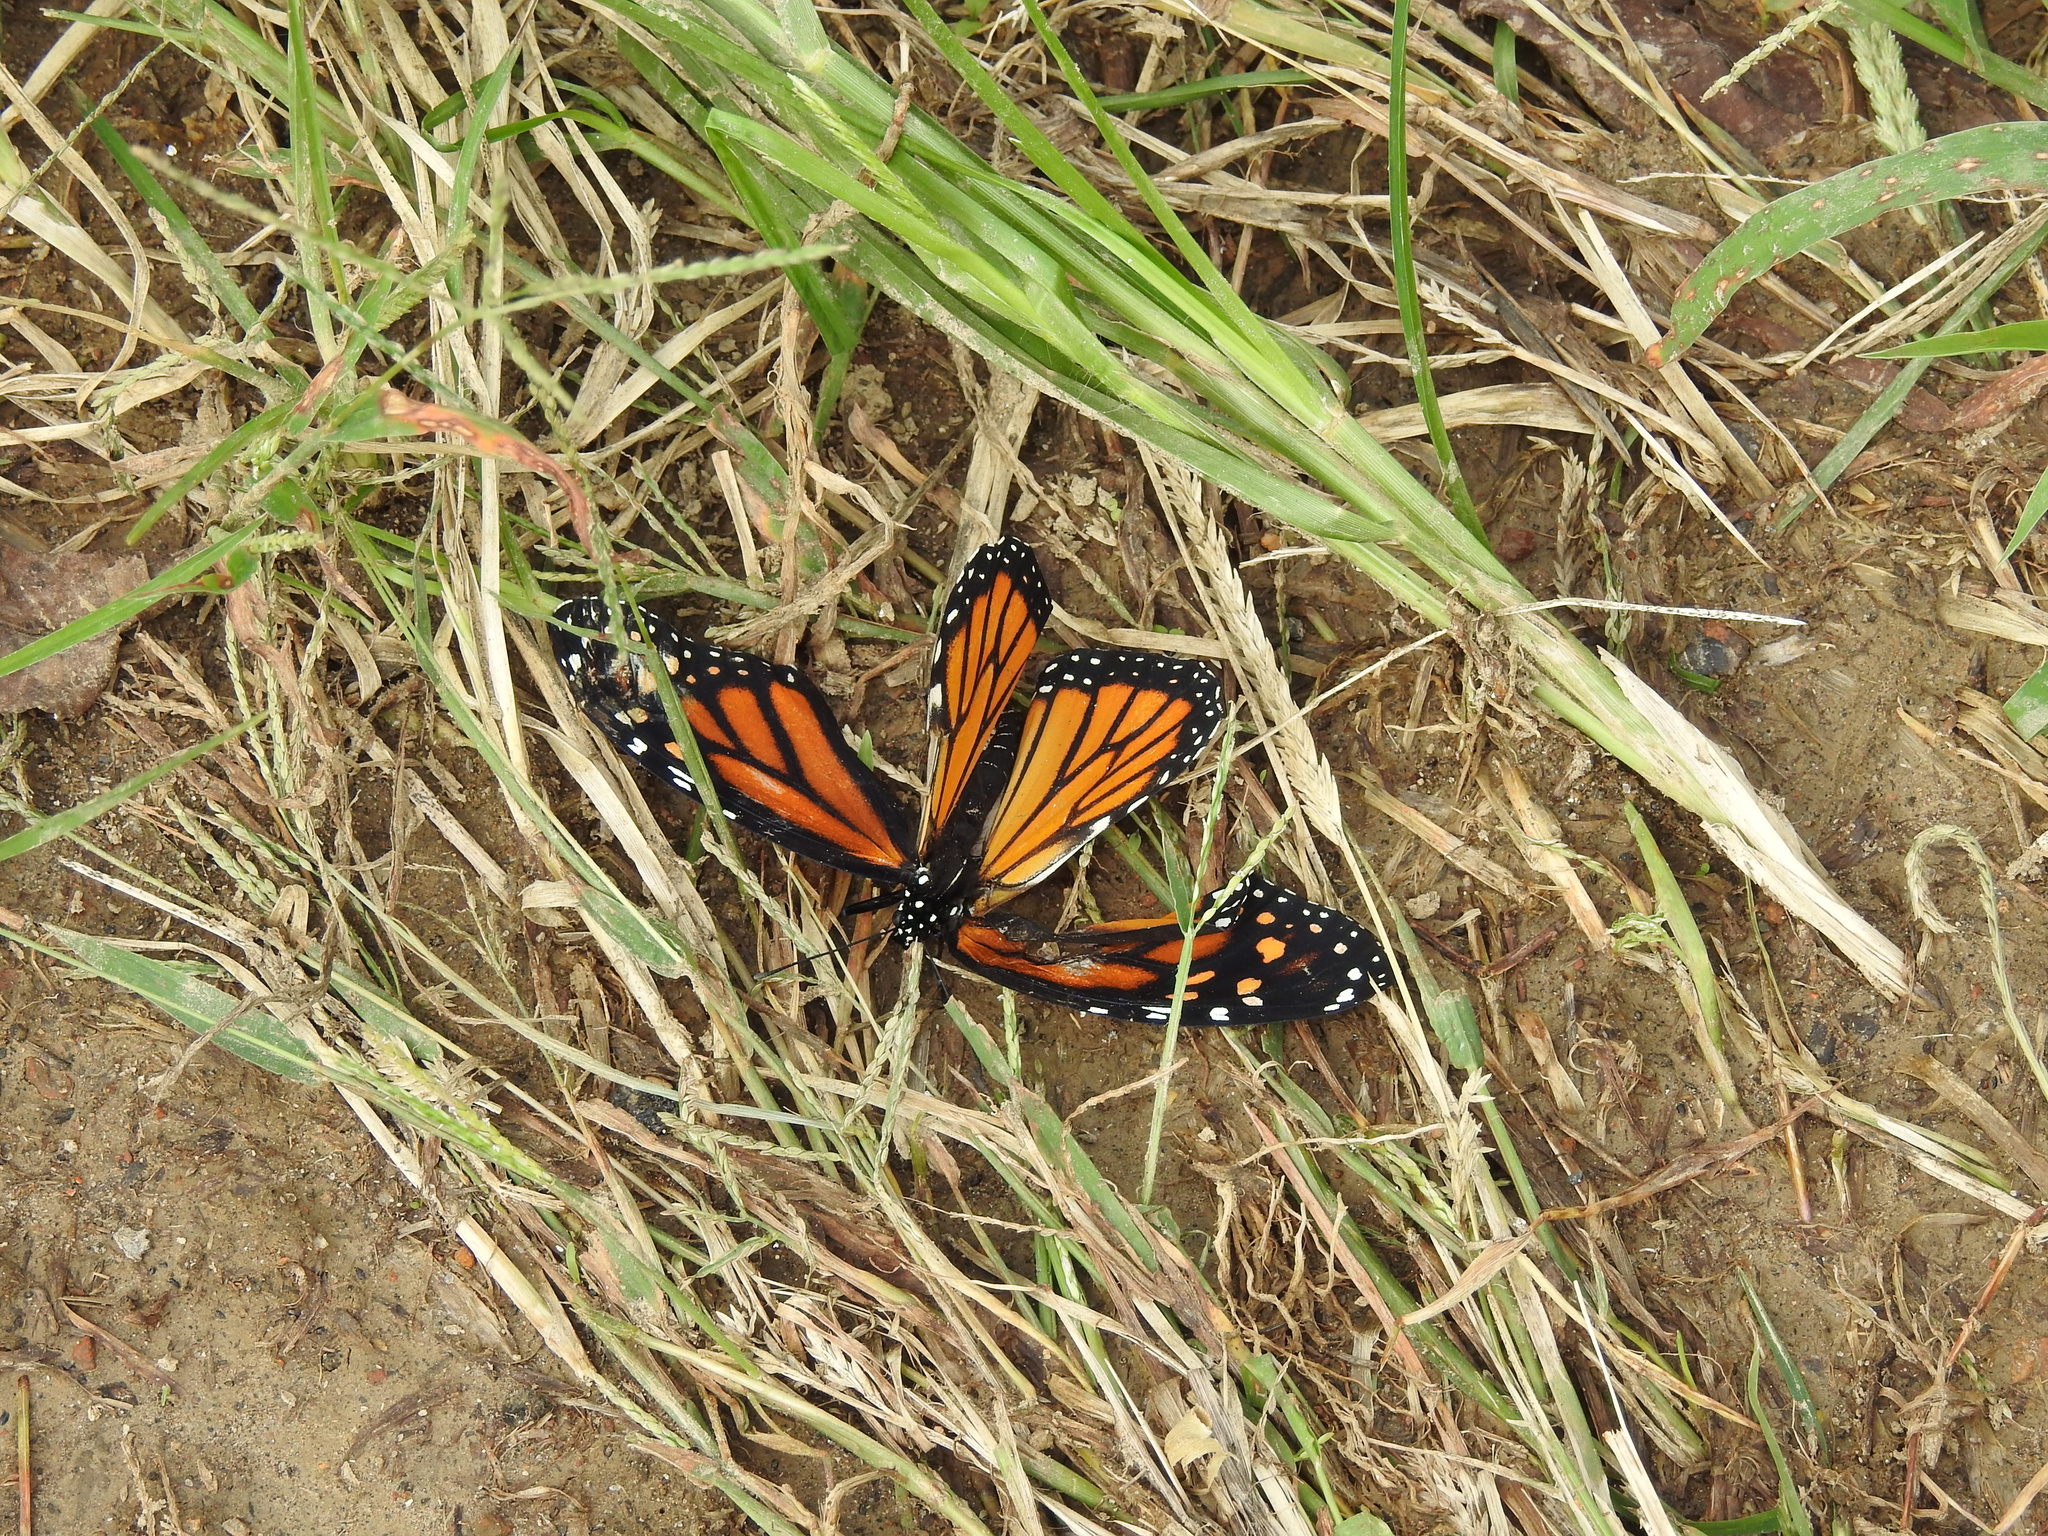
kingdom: Animalia
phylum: Arthropoda
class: Insecta
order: Lepidoptera
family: Nymphalidae
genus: Danaus
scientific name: Danaus plexippus
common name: Monarch
